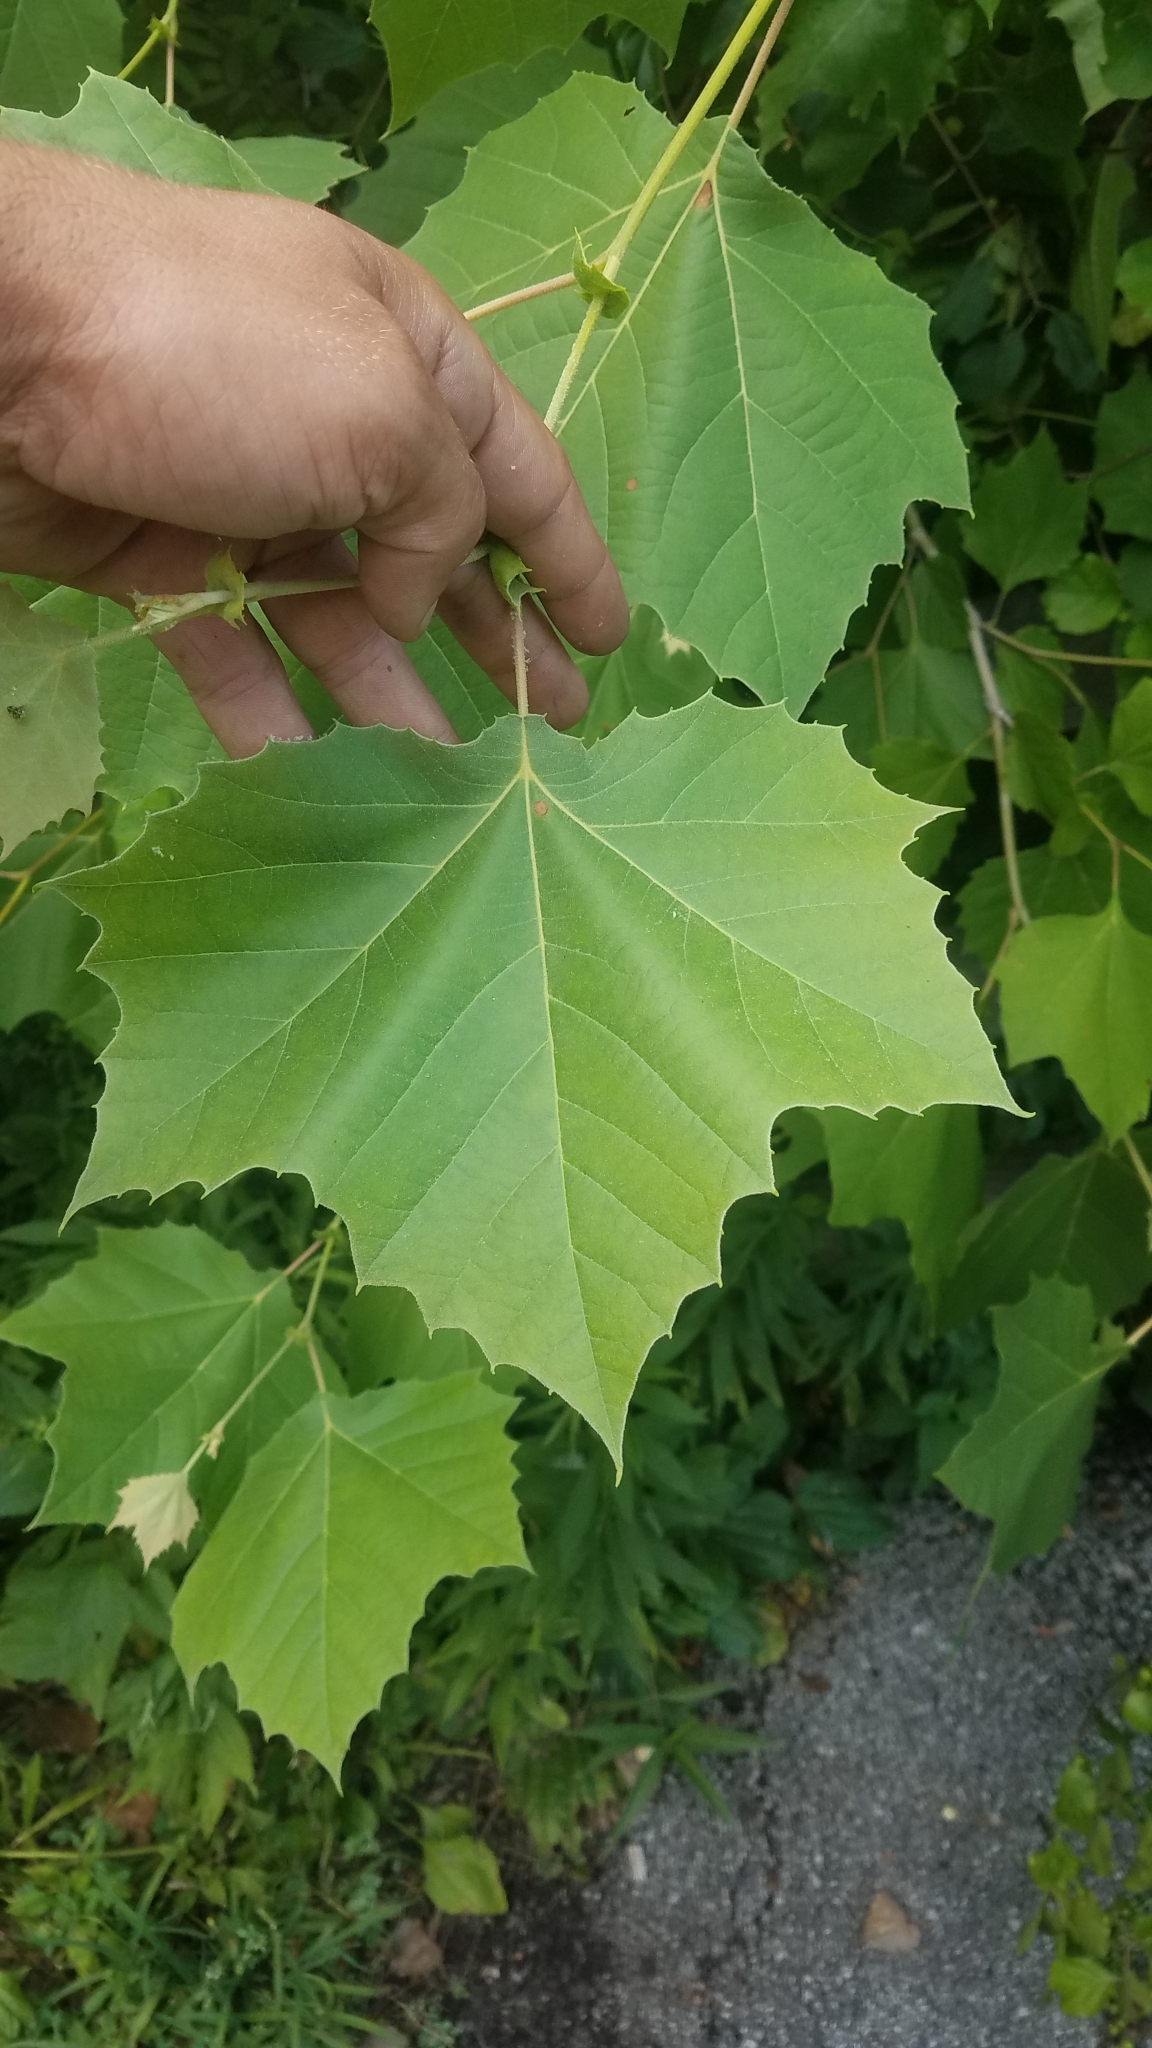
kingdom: Plantae
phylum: Tracheophyta
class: Magnoliopsida
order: Proteales
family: Platanaceae
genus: Platanus
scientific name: Platanus occidentalis
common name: American sycamore
